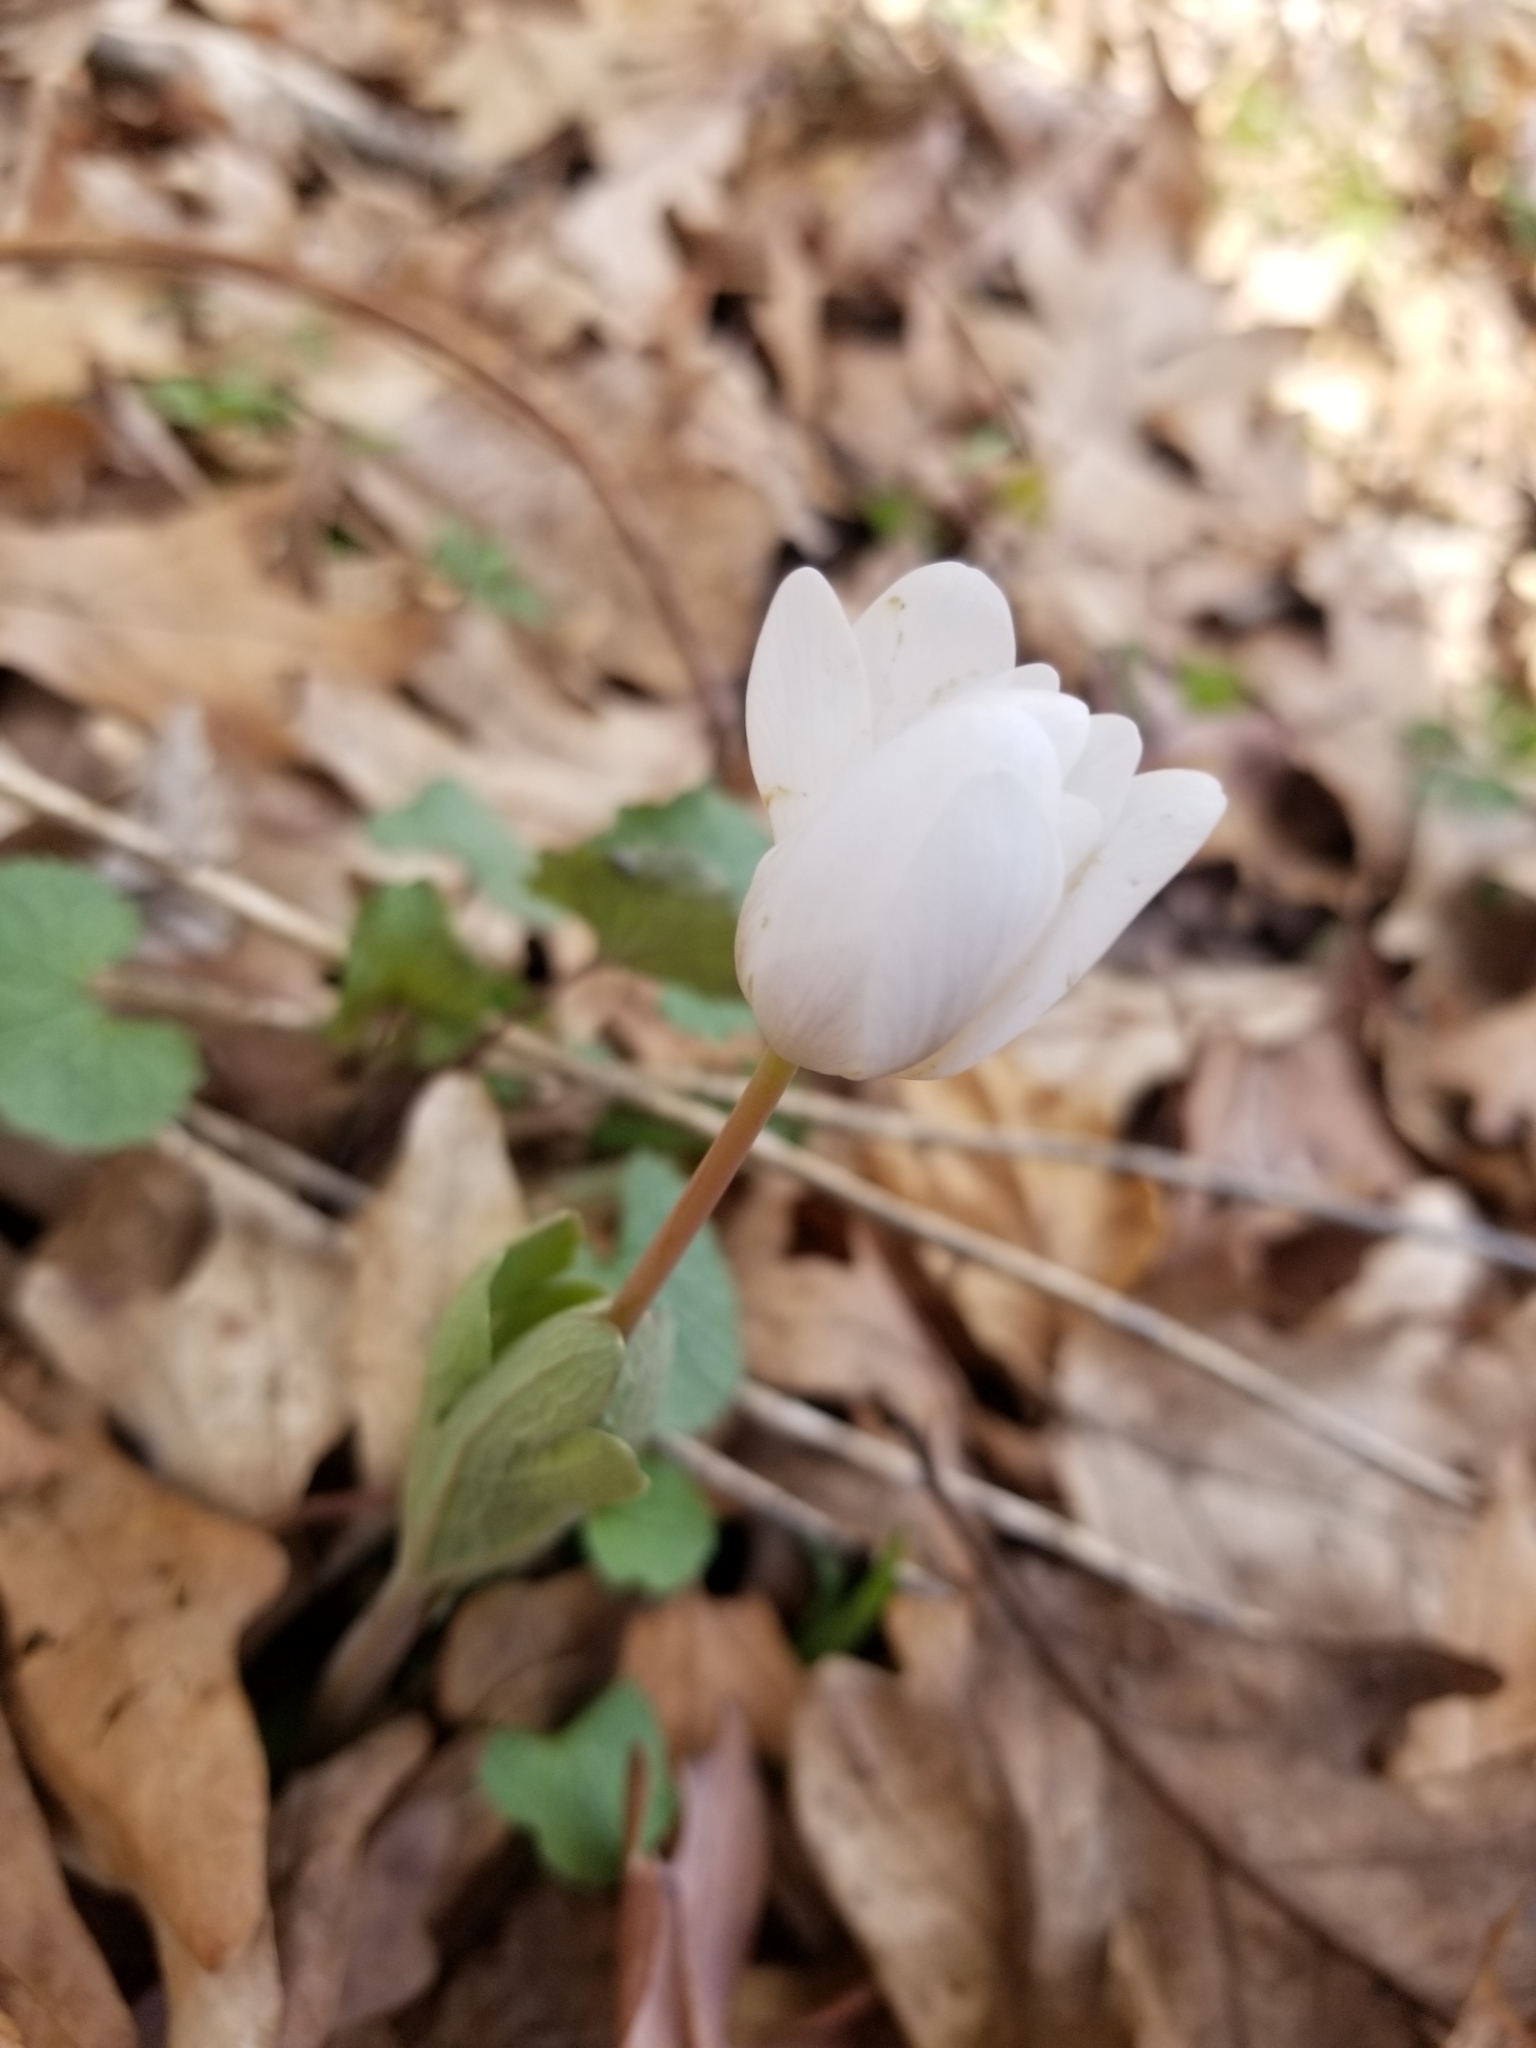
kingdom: Plantae
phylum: Tracheophyta
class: Magnoliopsida
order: Ranunculales
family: Papaveraceae
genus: Sanguinaria
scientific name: Sanguinaria canadensis
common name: Bloodroot
